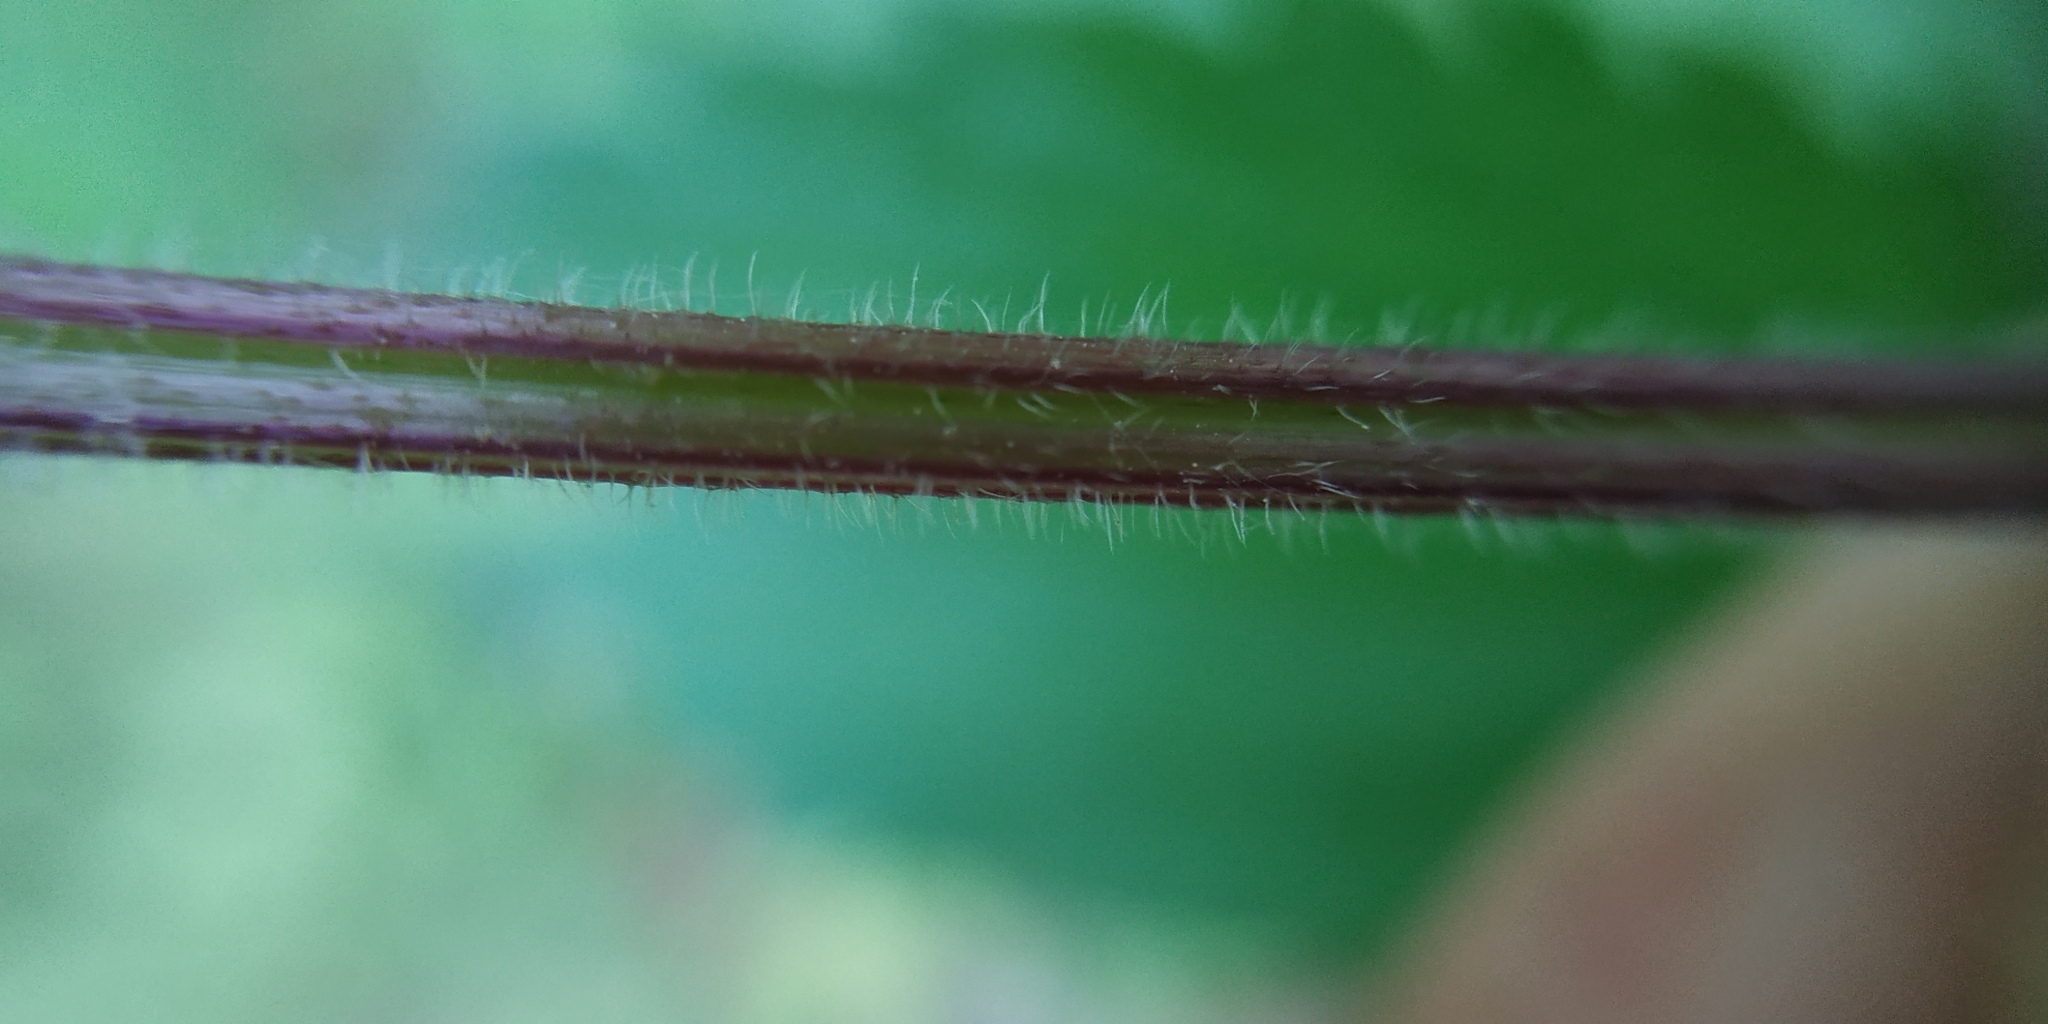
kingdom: Plantae
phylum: Tracheophyta
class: Magnoliopsida
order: Rosales
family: Urticaceae
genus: Urtica
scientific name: Urtica galeopsifolia
